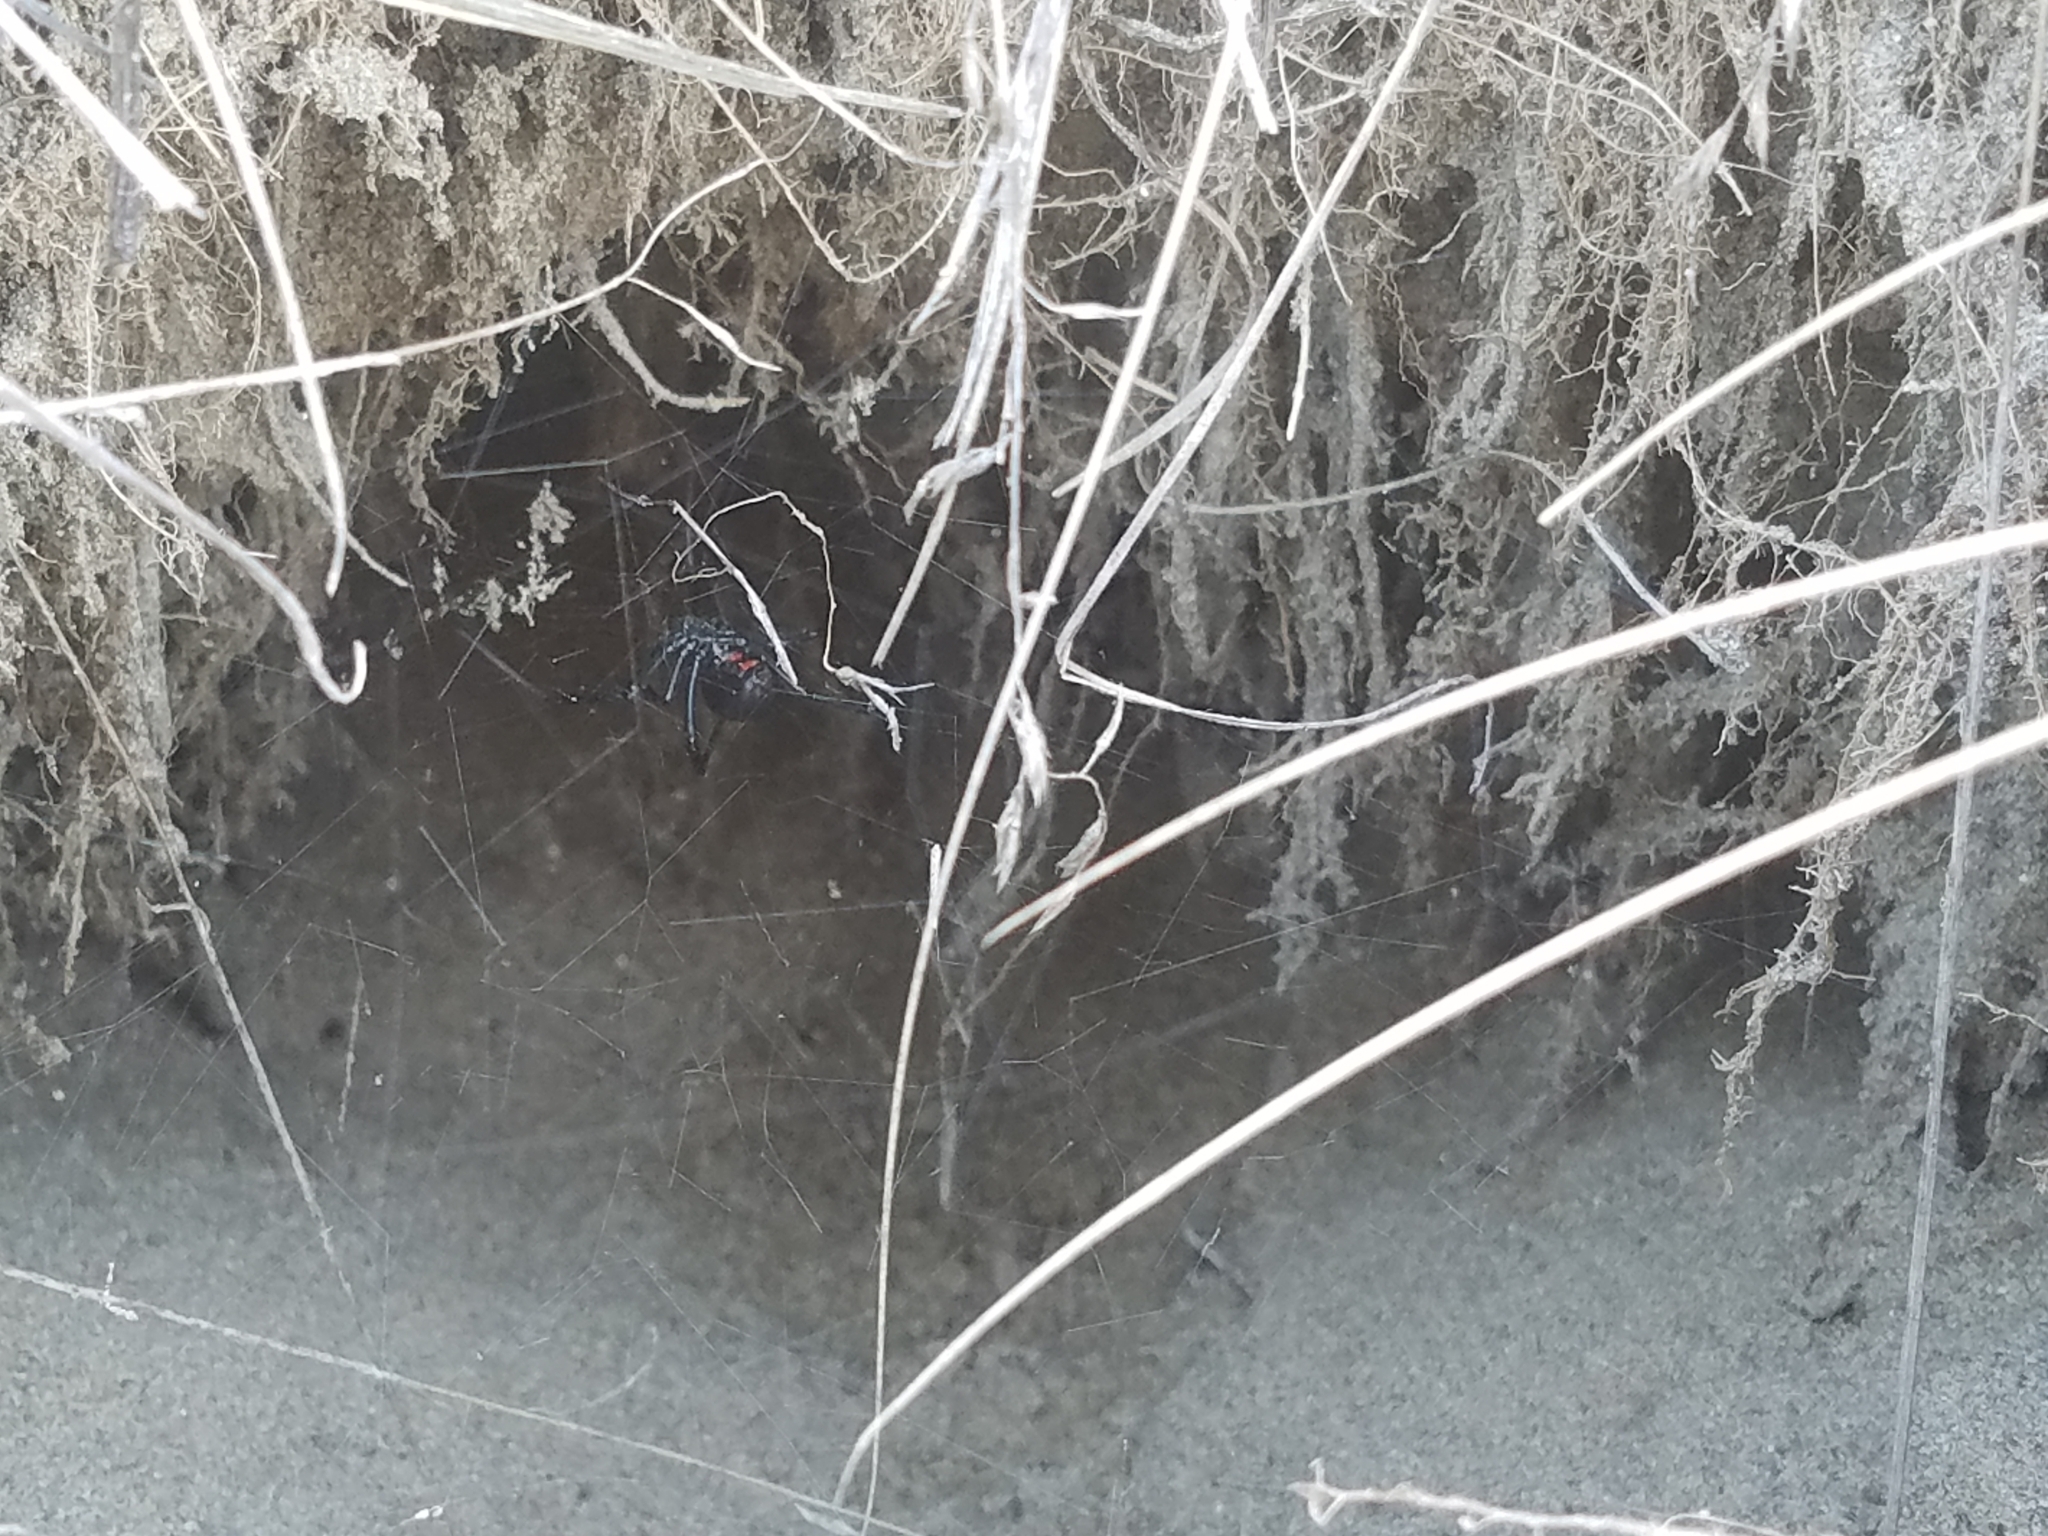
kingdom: Animalia
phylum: Arthropoda
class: Arachnida
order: Araneae
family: Theridiidae
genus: Latrodectus
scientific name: Latrodectus hesperus
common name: Western black widow
